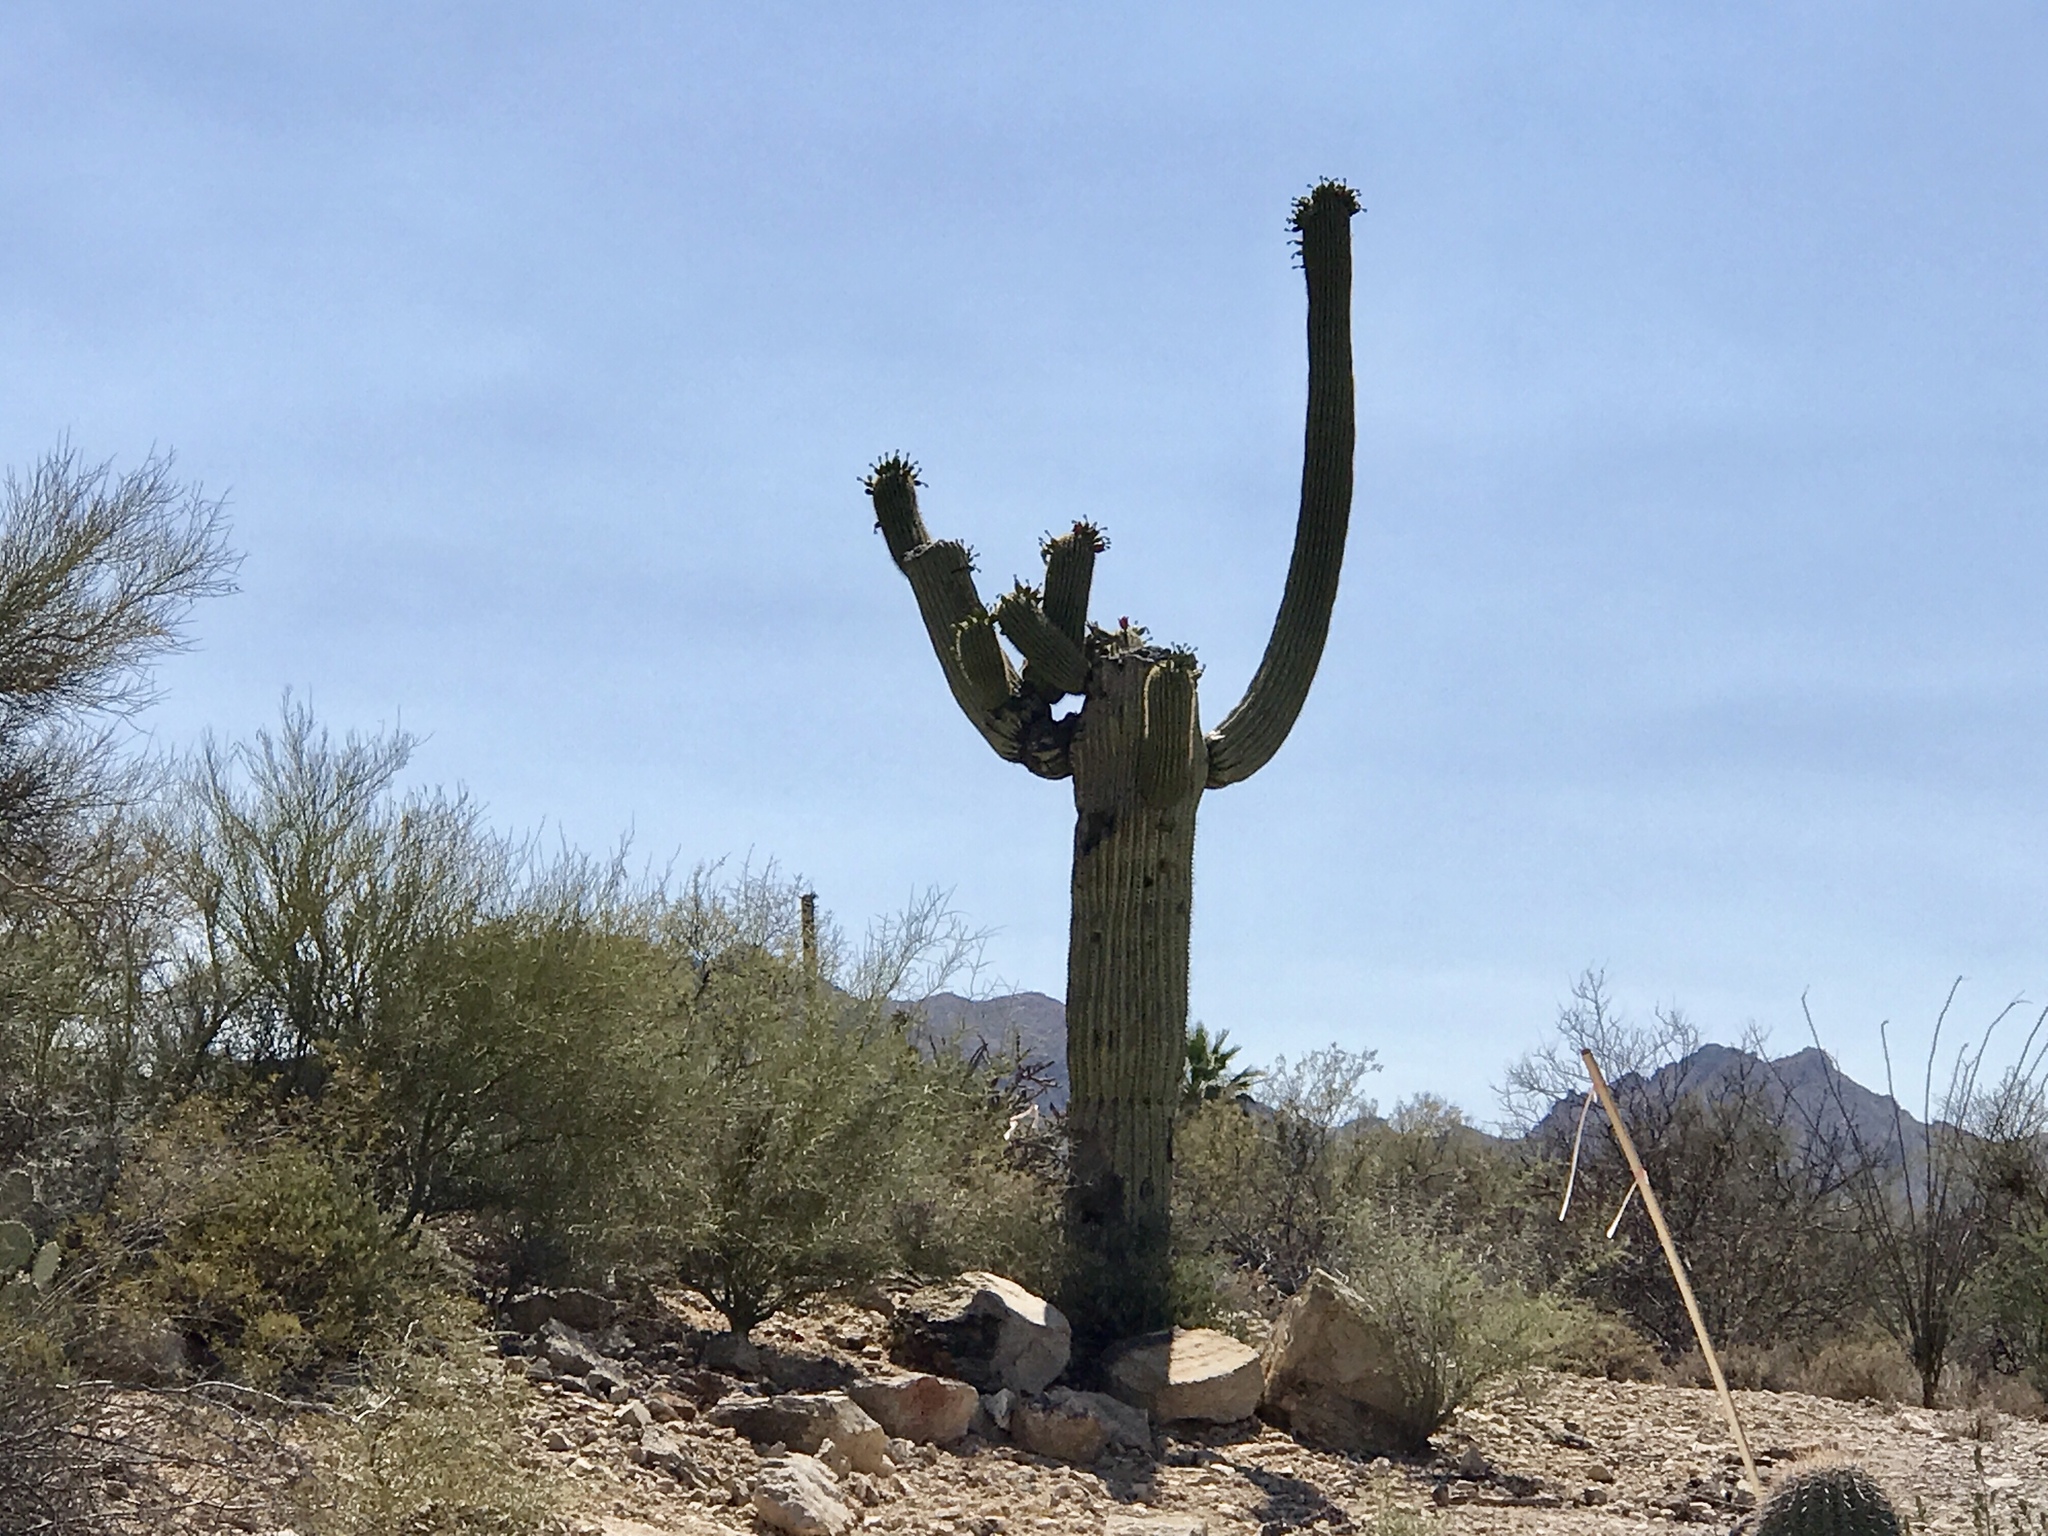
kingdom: Plantae
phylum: Tracheophyta
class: Magnoliopsida
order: Caryophyllales
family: Cactaceae
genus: Carnegiea
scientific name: Carnegiea gigantea
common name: Saguaro
